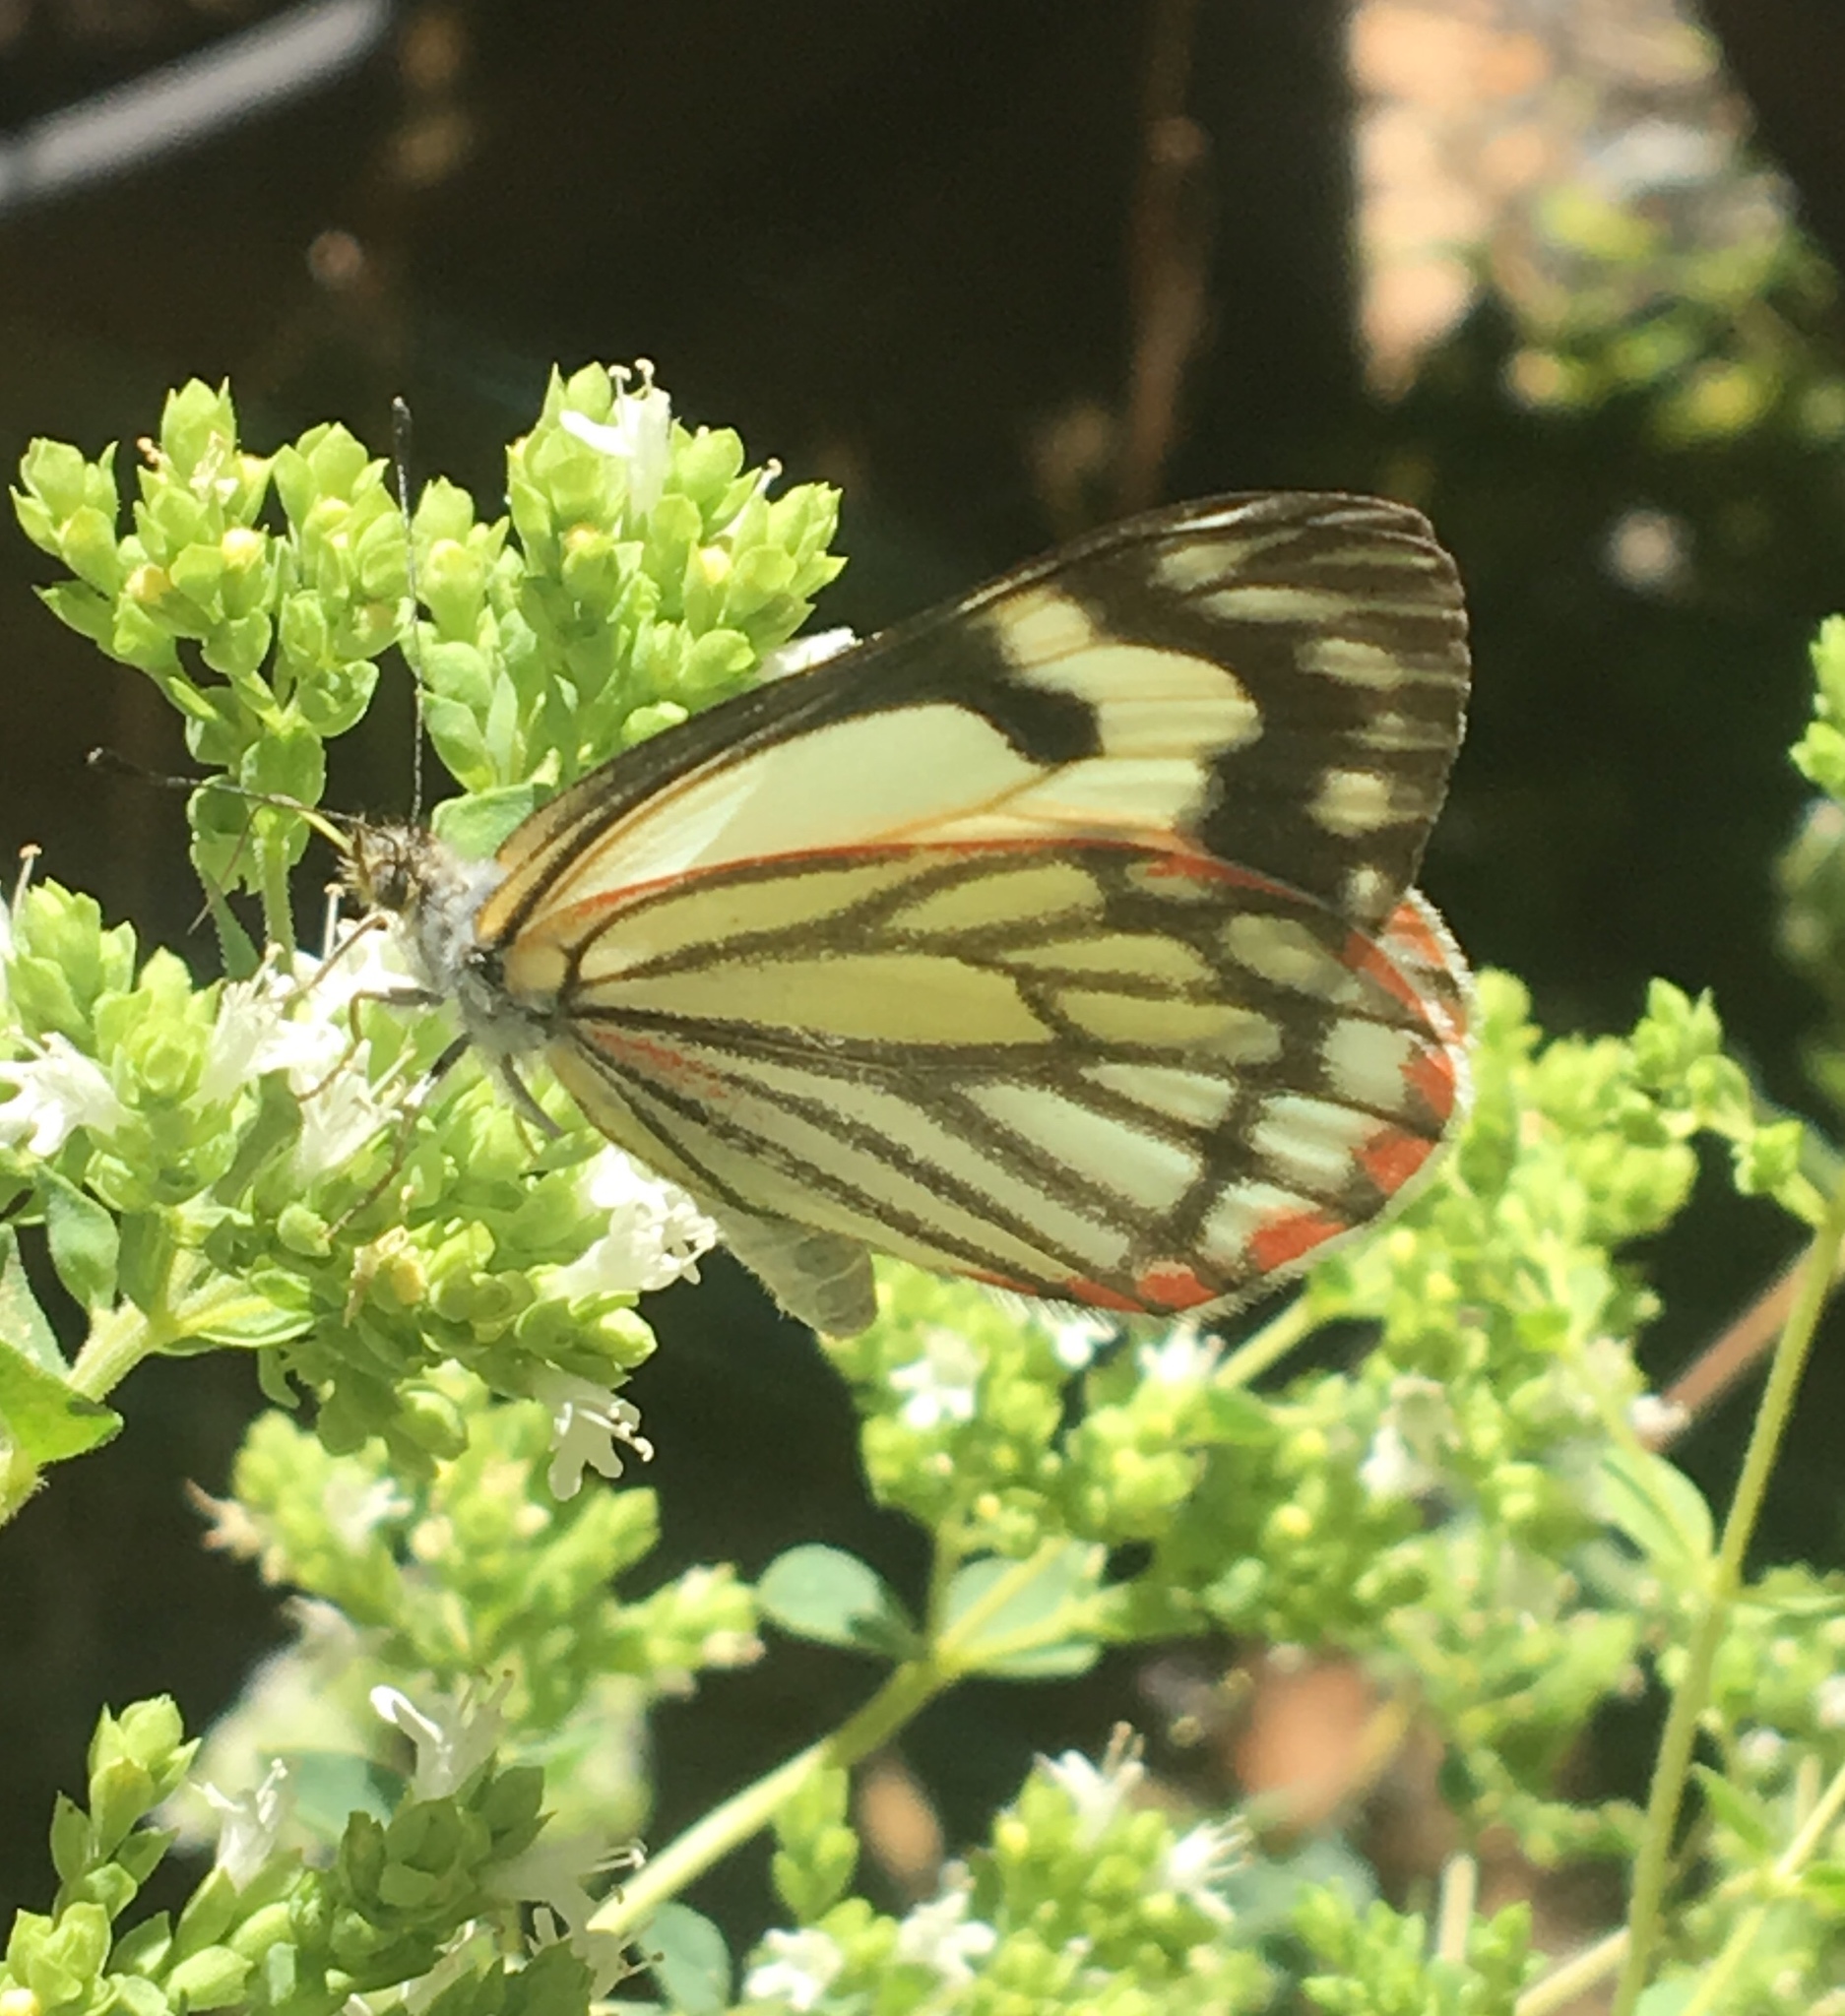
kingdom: Animalia
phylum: Arthropoda
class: Insecta
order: Lepidoptera
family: Pieridae
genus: Neophasia
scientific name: Neophasia menapia
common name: Pine white
